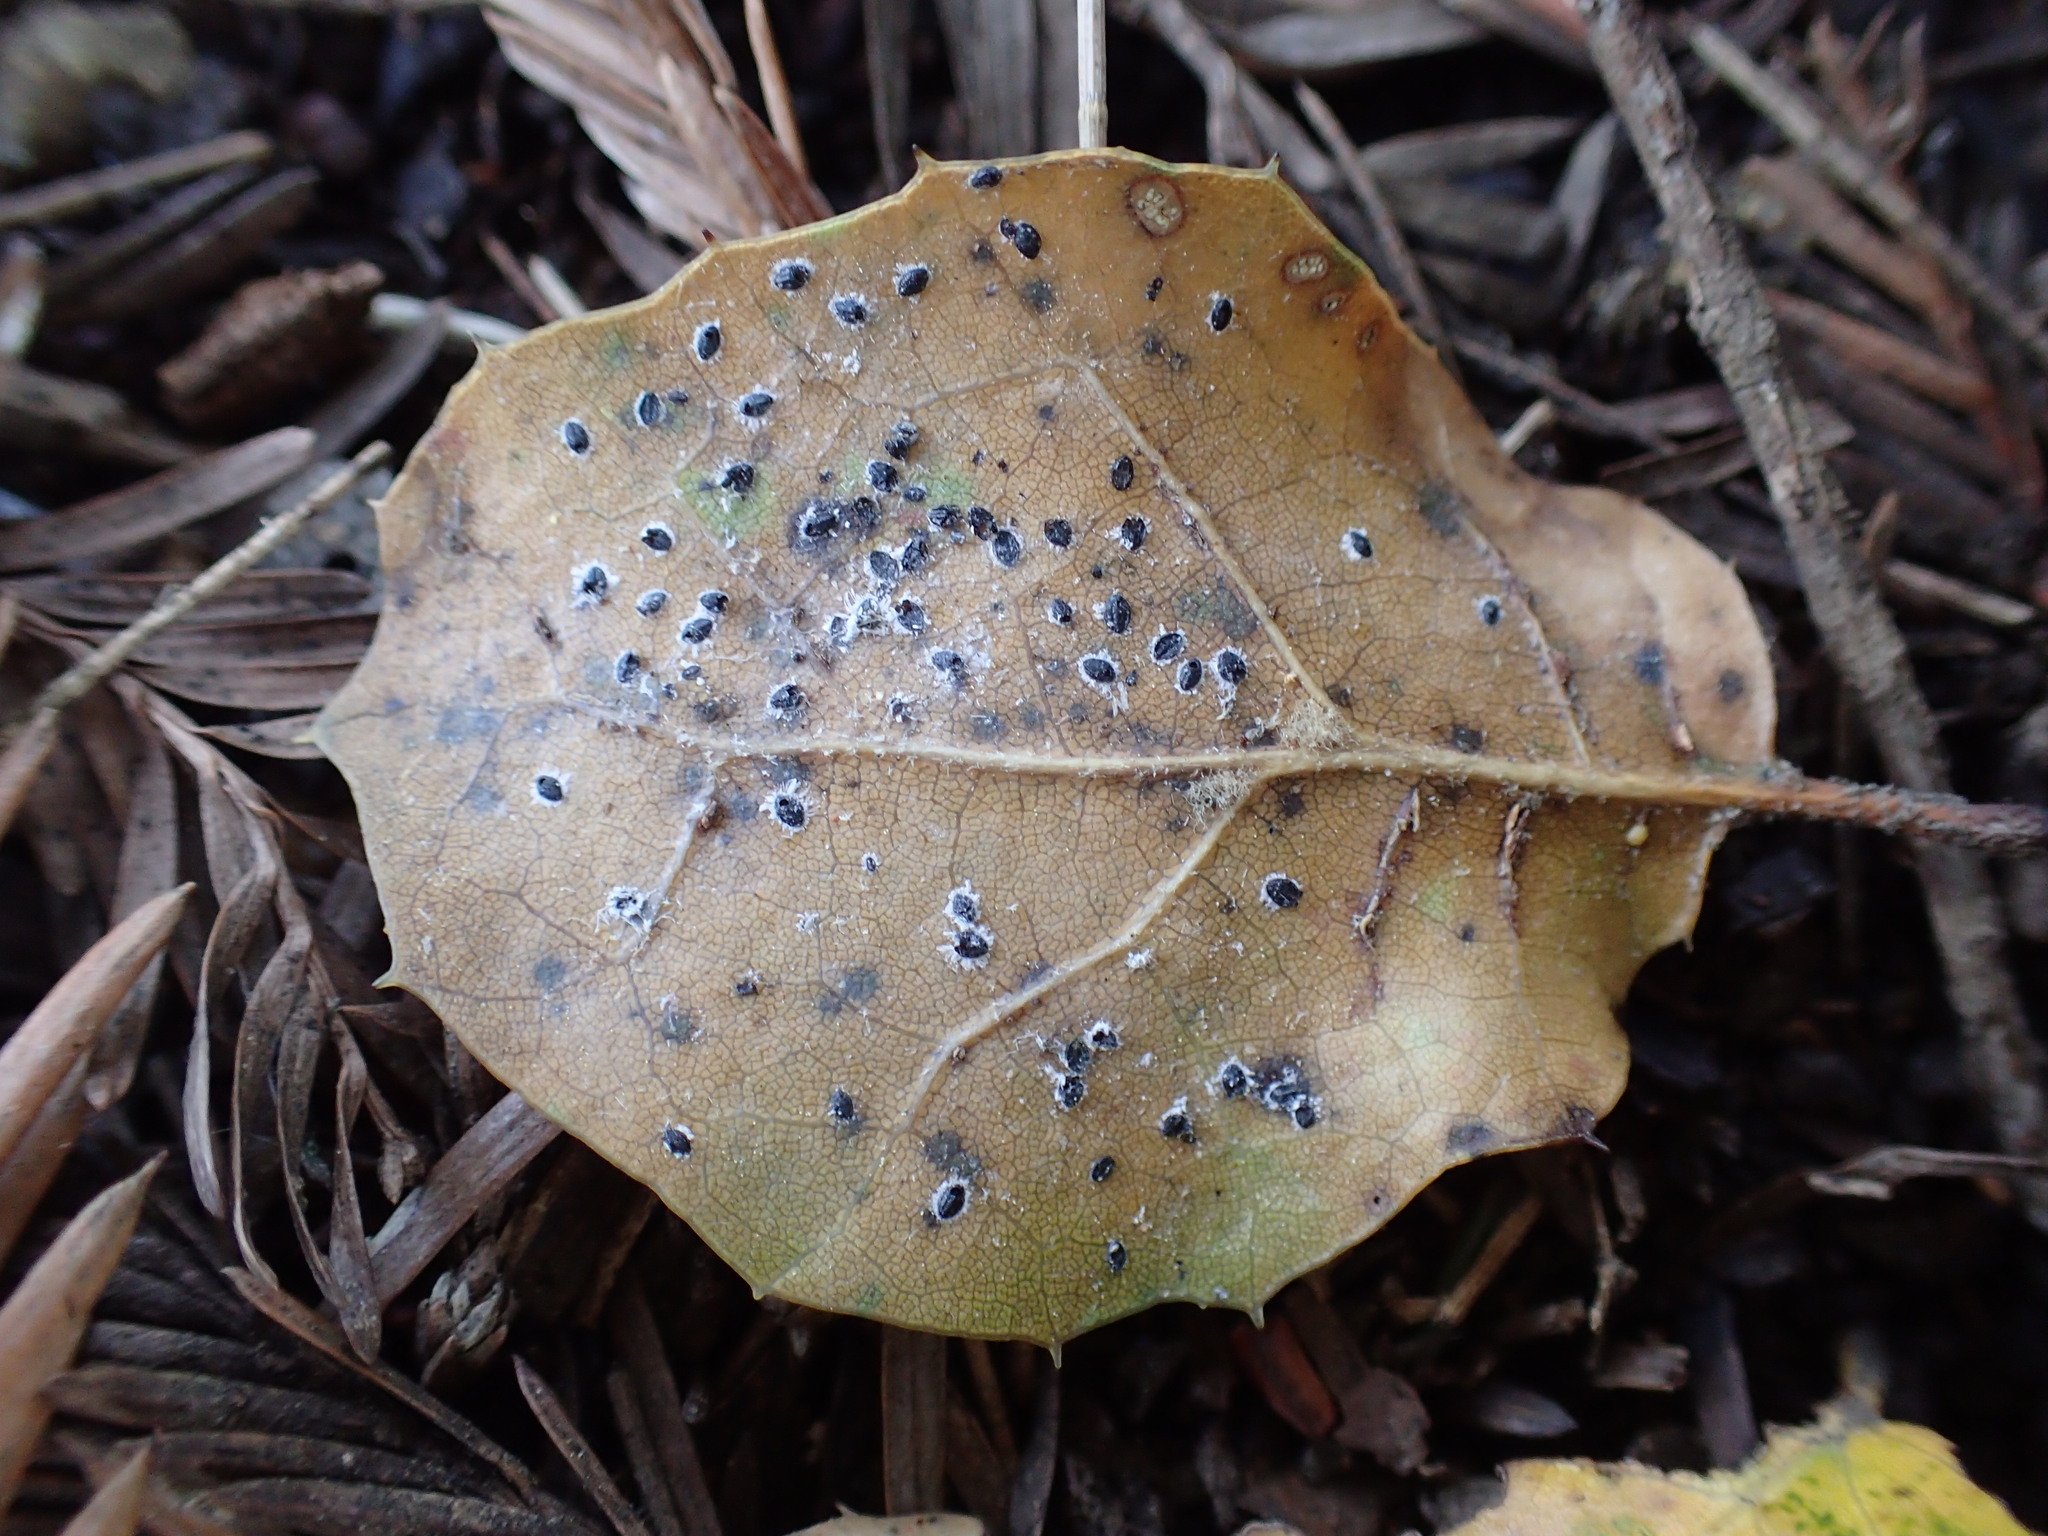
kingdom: Animalia
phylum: Arthropoda
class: Insecta
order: Hemiptera
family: Aleyrodidae
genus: Tetraleurodes
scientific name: Tetraleurodes perileuca
